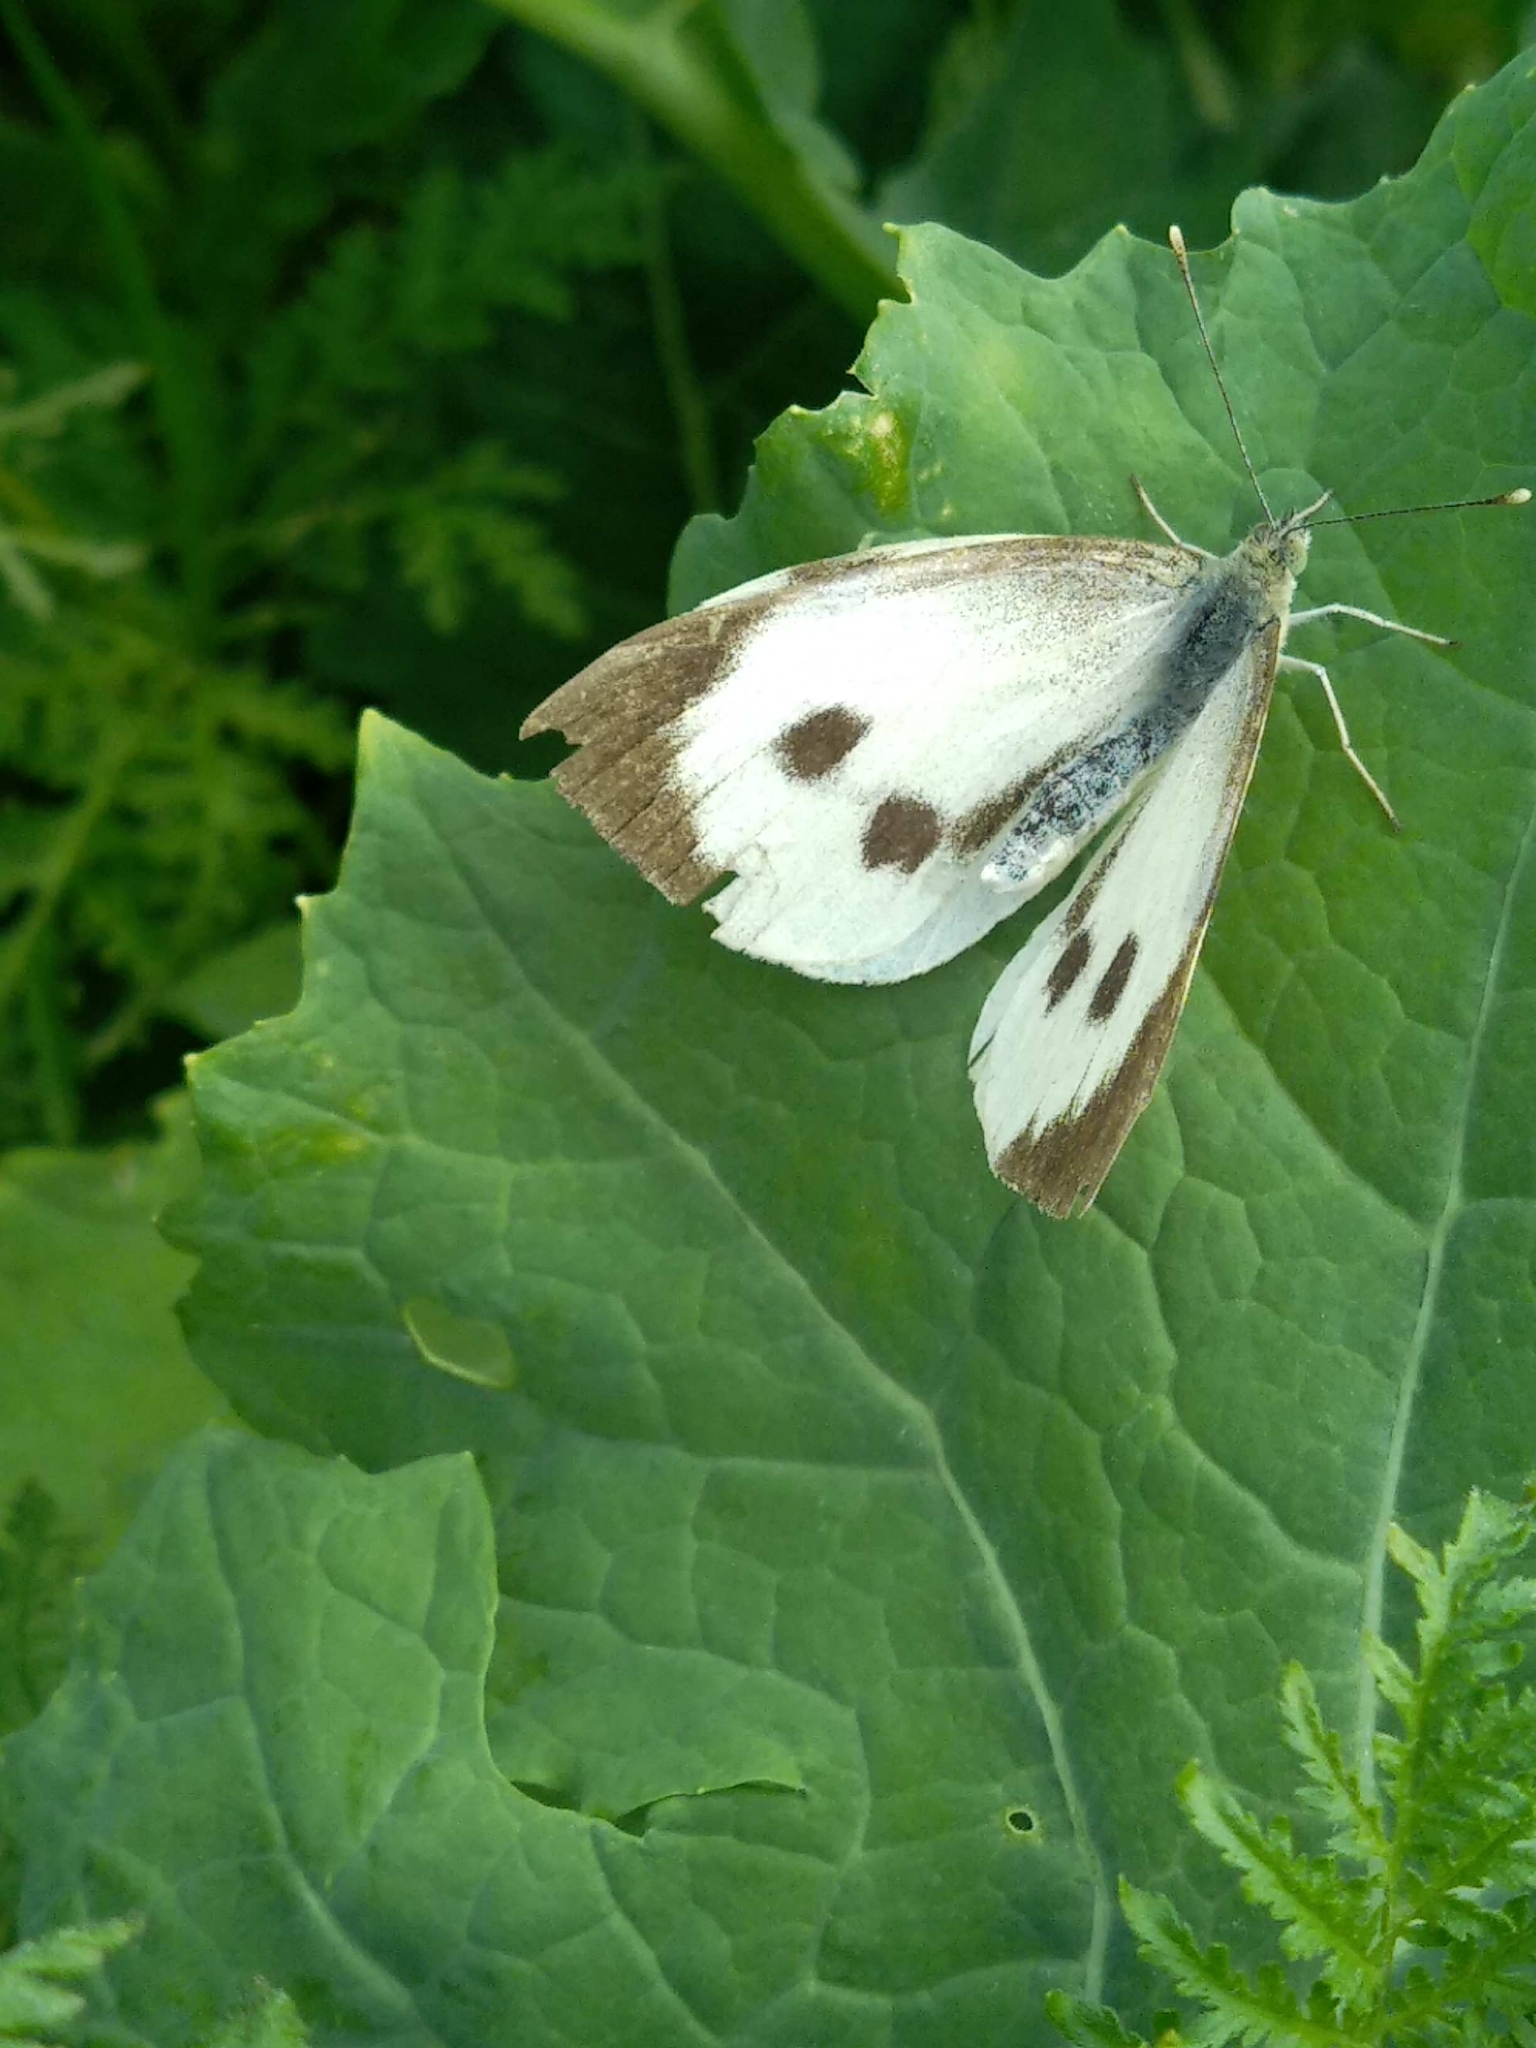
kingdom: Animalia
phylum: Arthropoda
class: Insecta
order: Lepidoptera
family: Pieridae
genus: Pieris
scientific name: Pieris brassicae
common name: Large white
